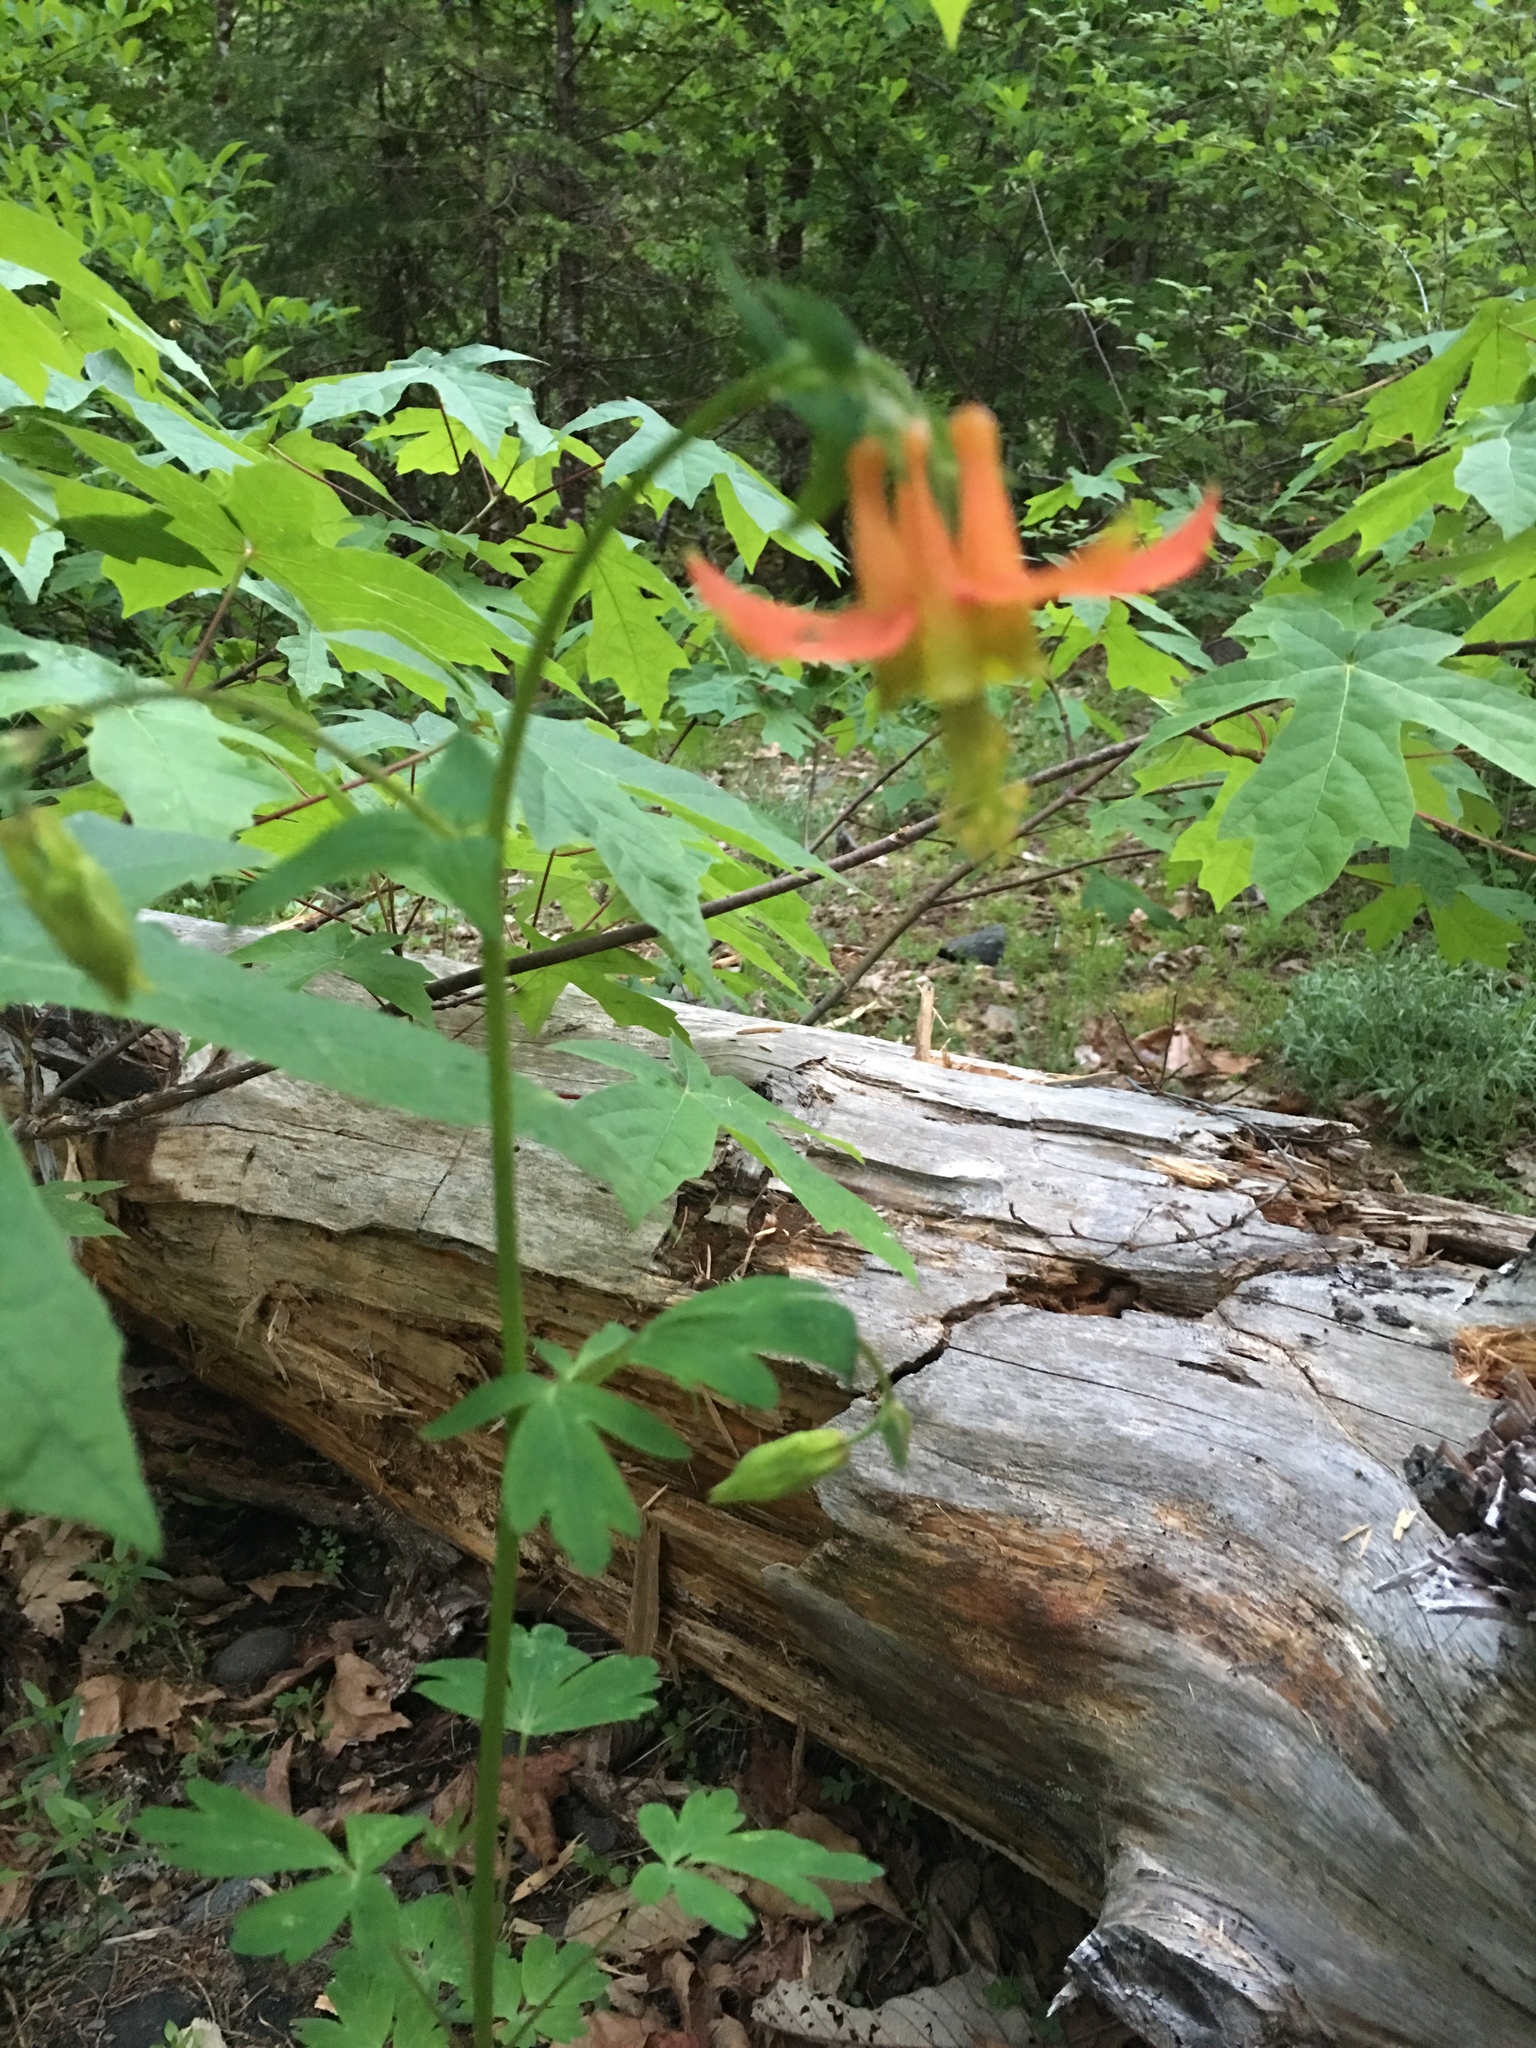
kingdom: Plantae
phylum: Tracheophyta
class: Magnoliopsida
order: Ranunculales
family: Ranunculaceae
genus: Aquilegia
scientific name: Aquilegia formosa
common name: Sitka columbine
